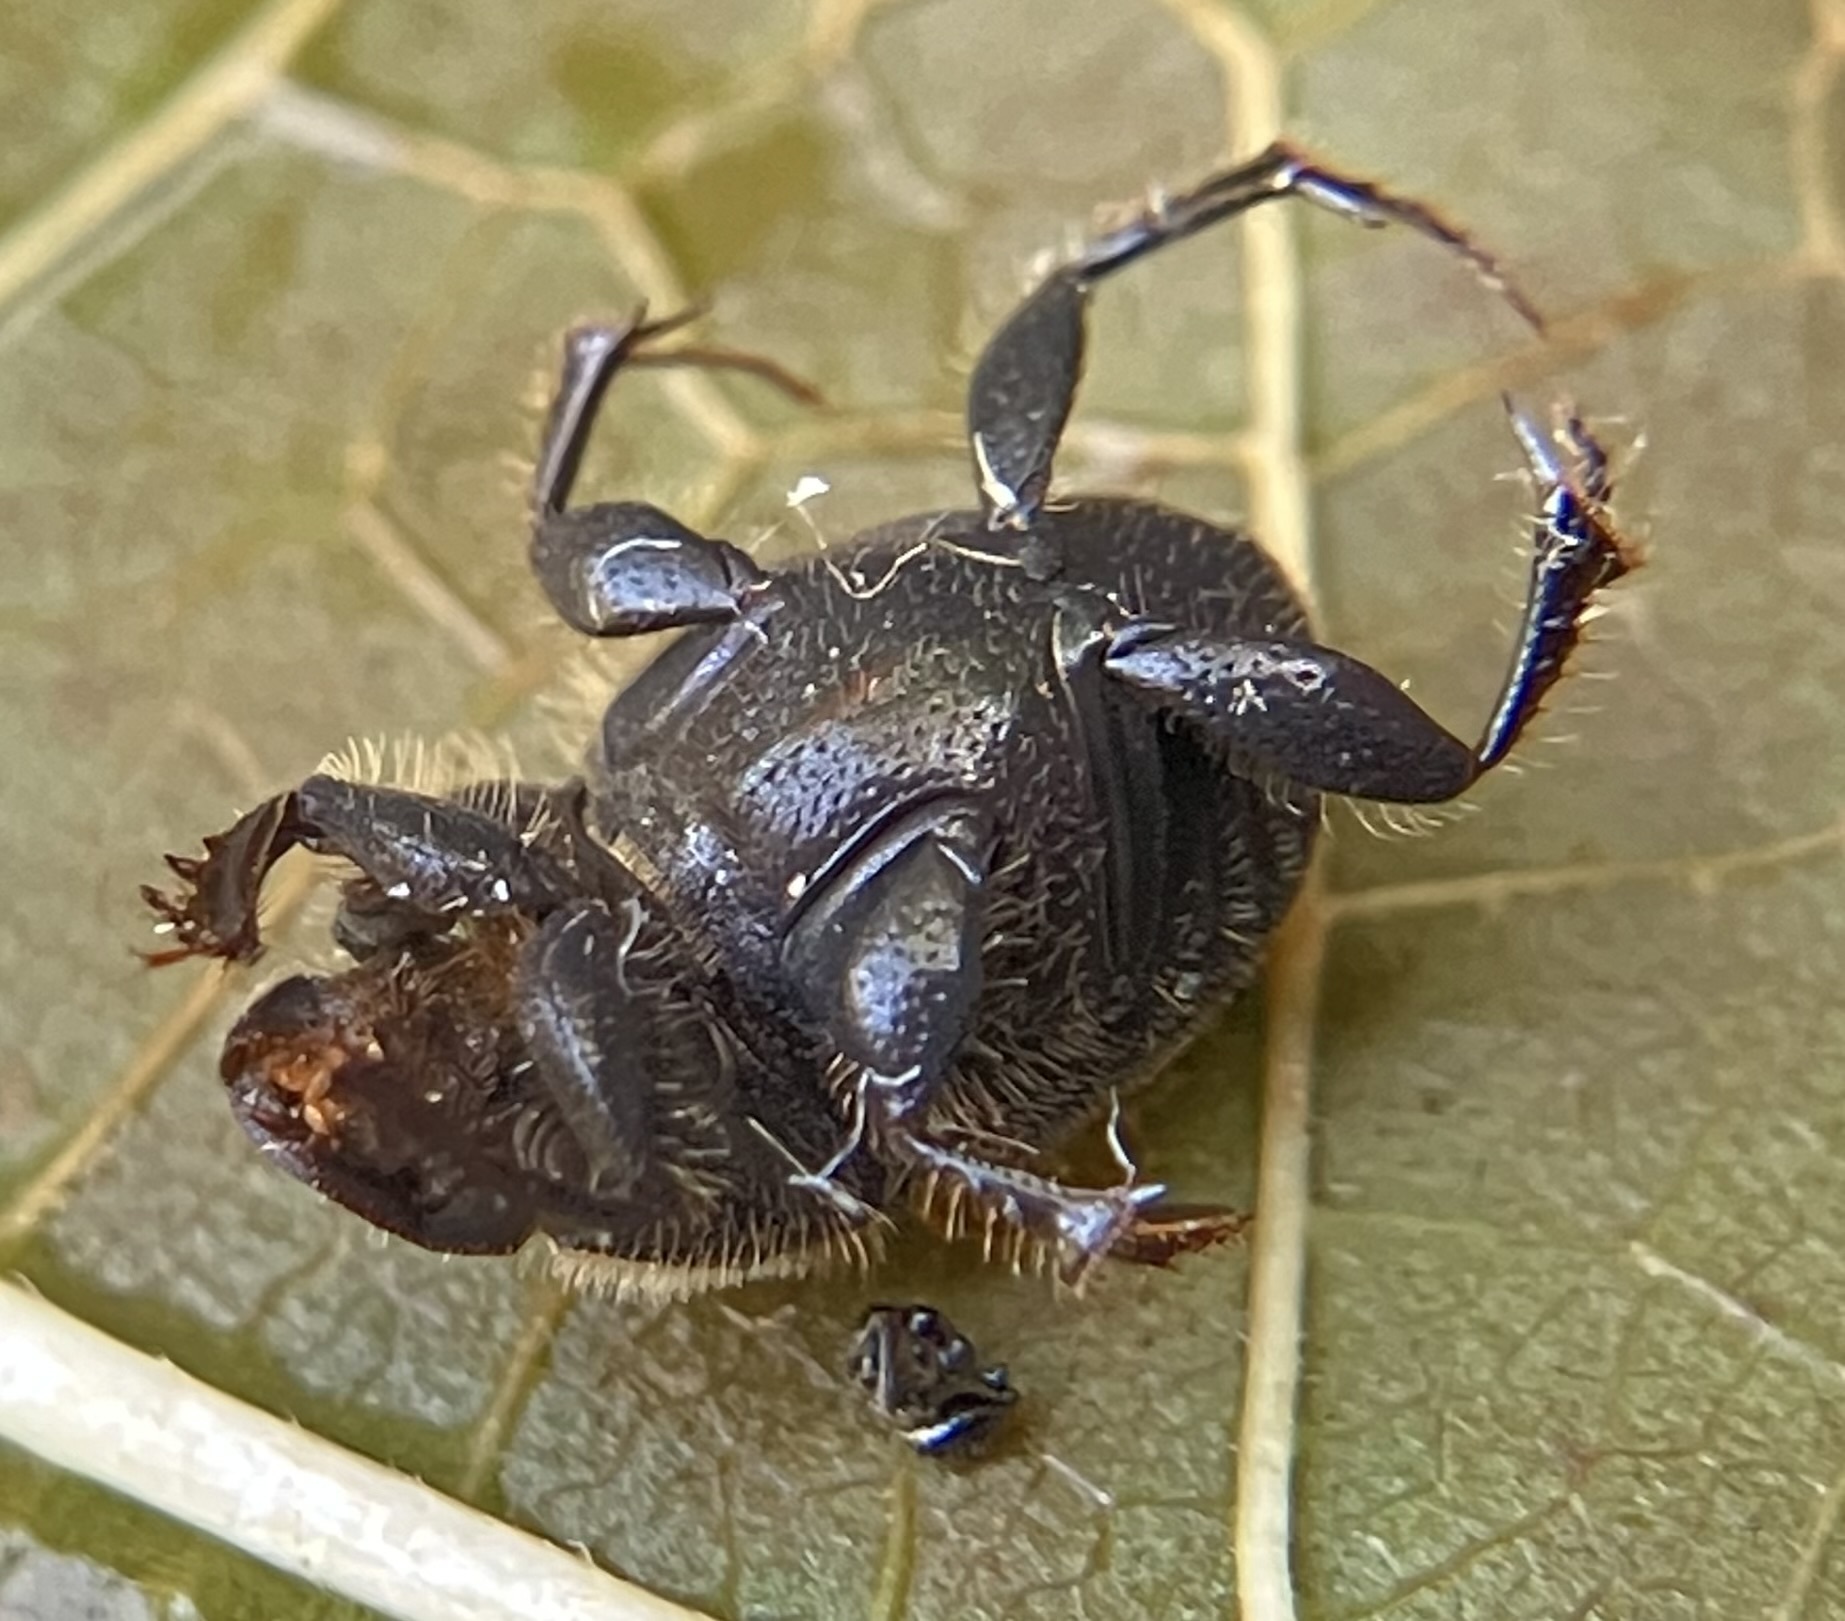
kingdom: Animalia
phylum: Arthropoda
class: Insecta
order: Coleoptera
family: Scarabaeidae
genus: Onthophagus
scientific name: Onthophagus hecate
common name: Scooped scarab
